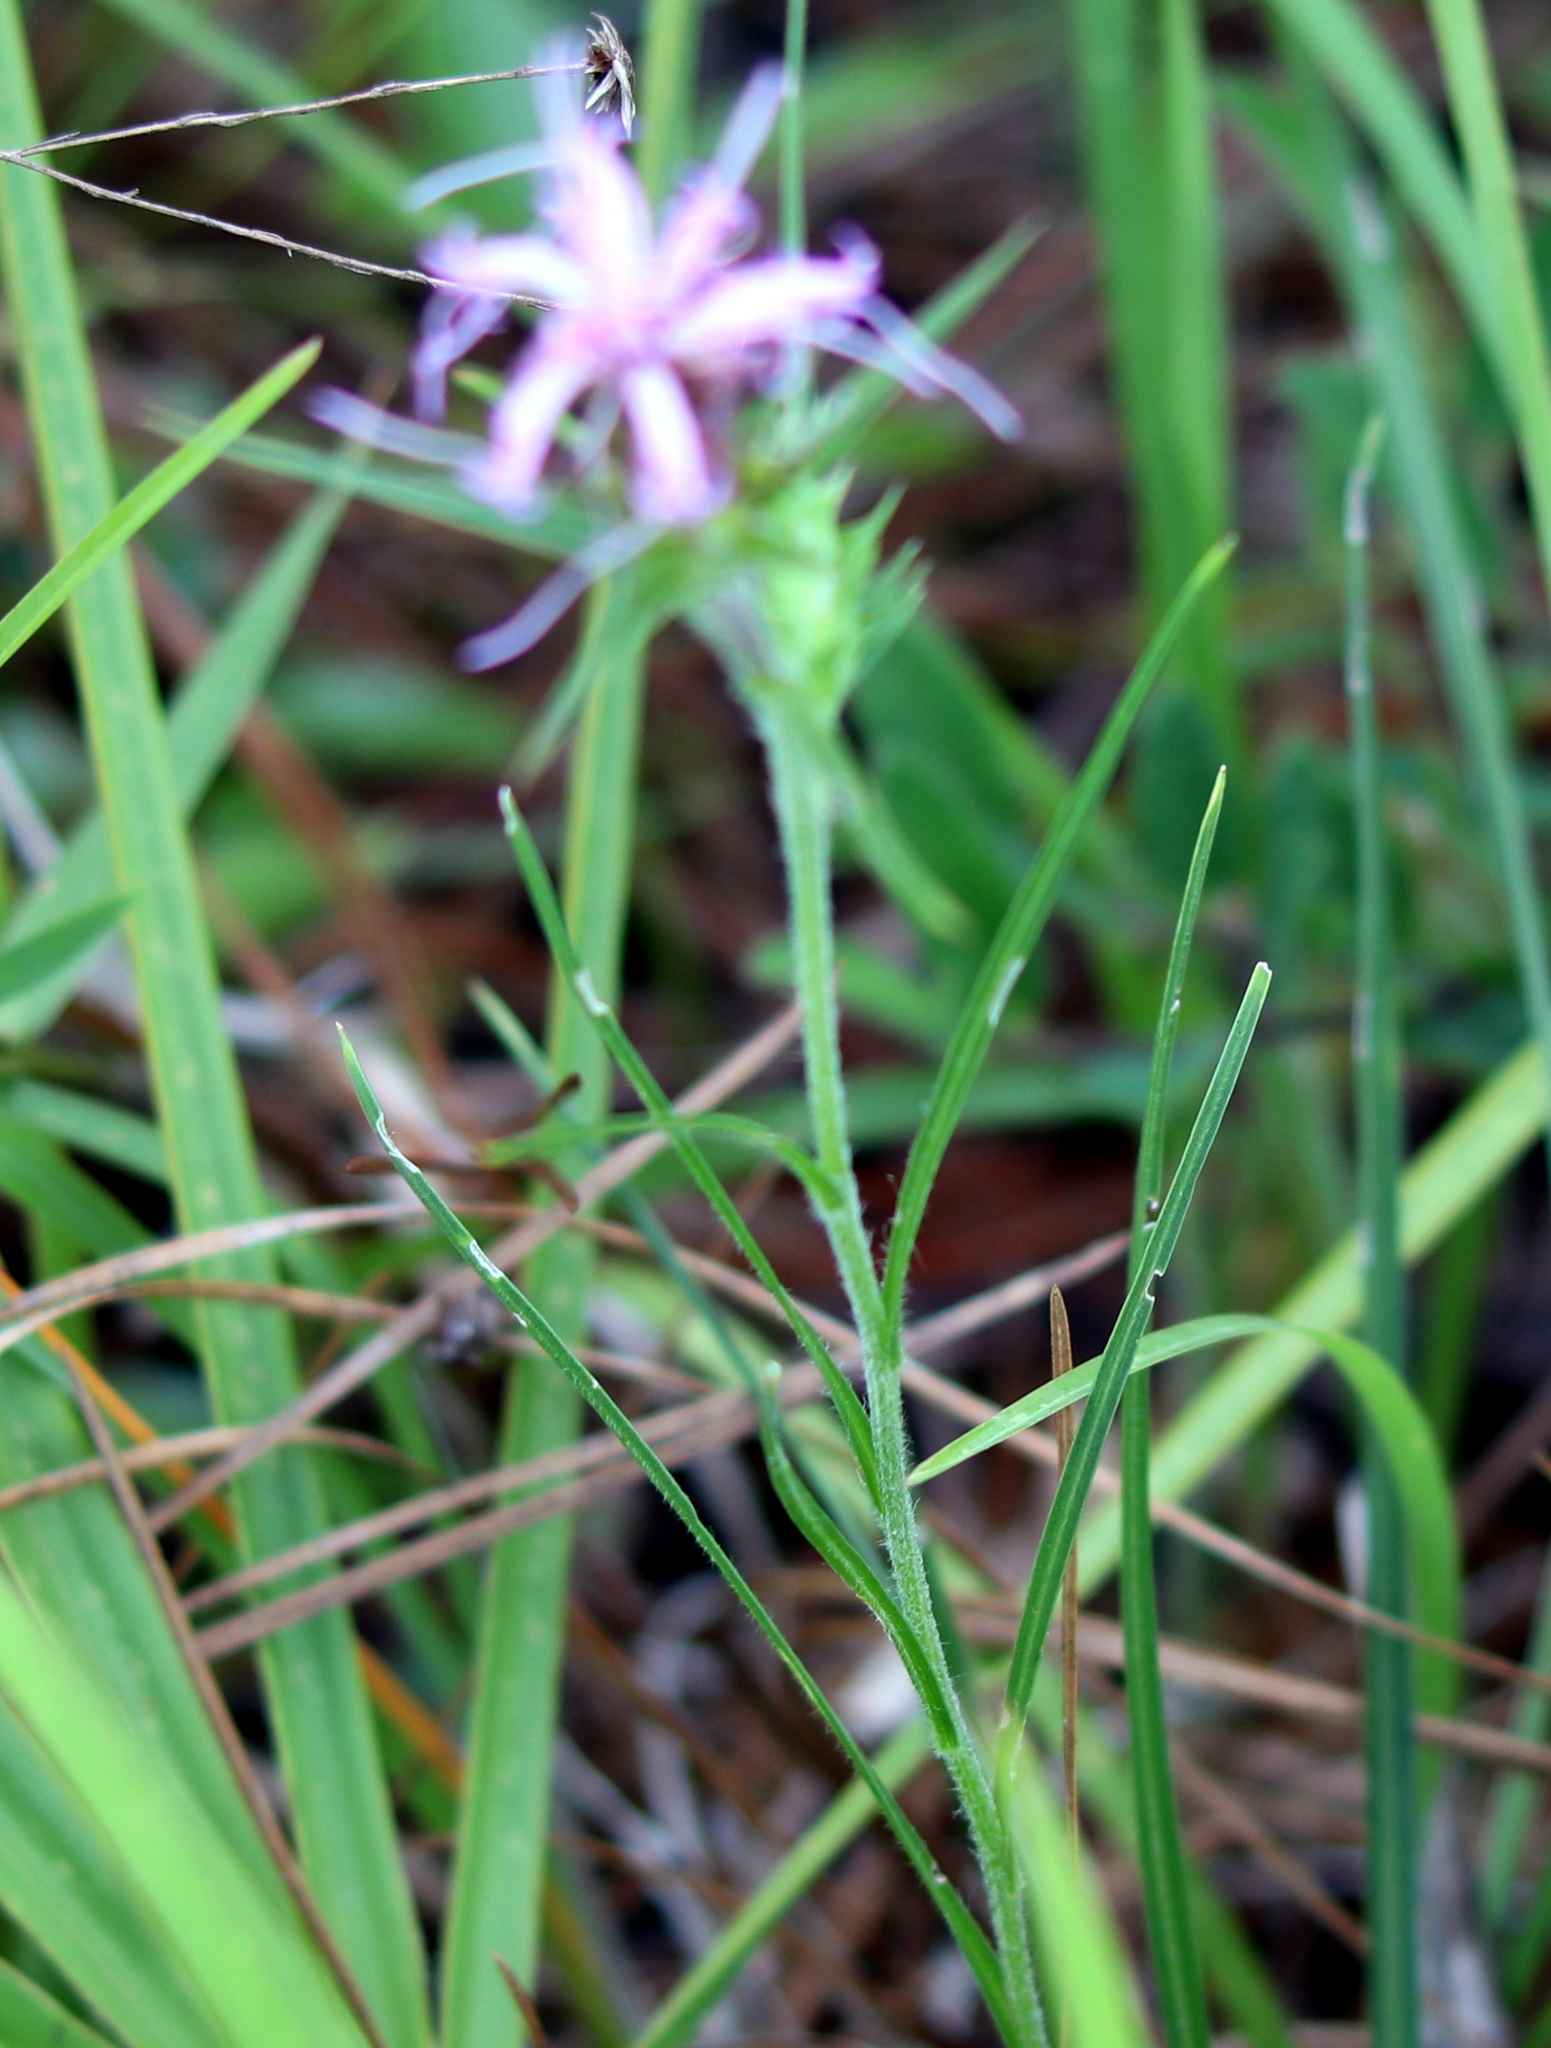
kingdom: Plantae
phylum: Tracheophyta
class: Magnoliopsida
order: Asterales
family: Asteraceae
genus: Liatris
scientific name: Liatris squarrosa
